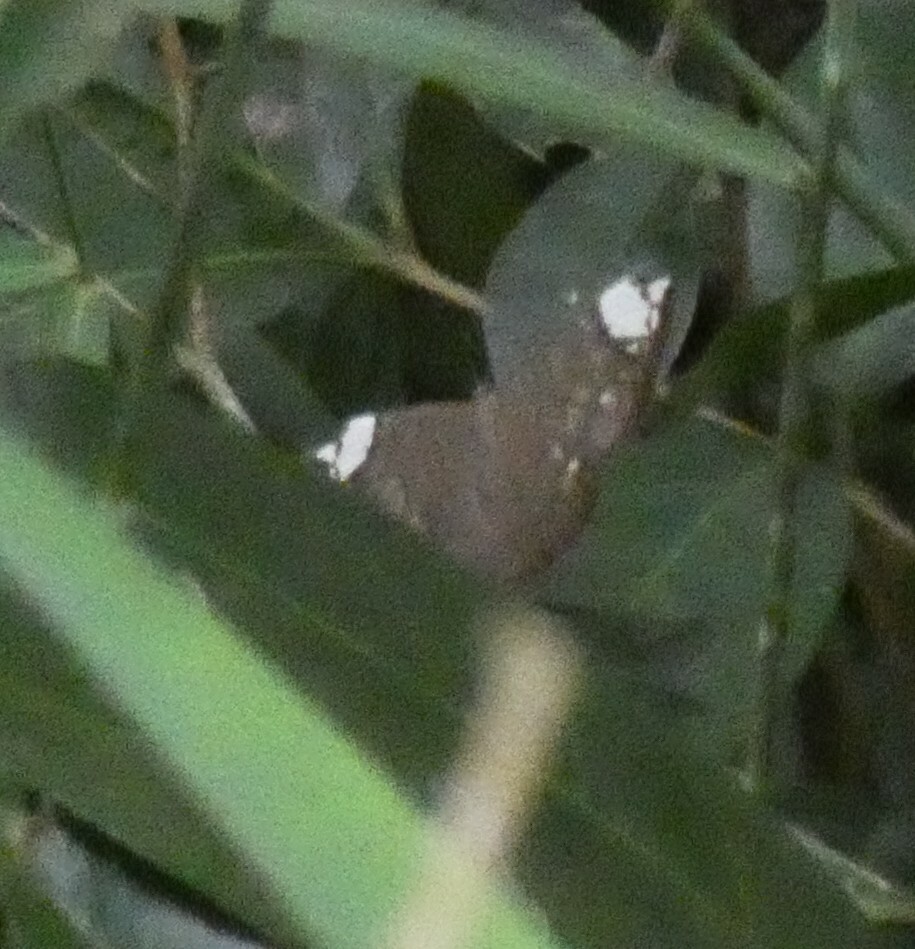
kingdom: Animalia
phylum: Arthropoda
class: Insecta
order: Lepidoptera
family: Lycaenidae
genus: Emesis
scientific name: Emesis lucinda
